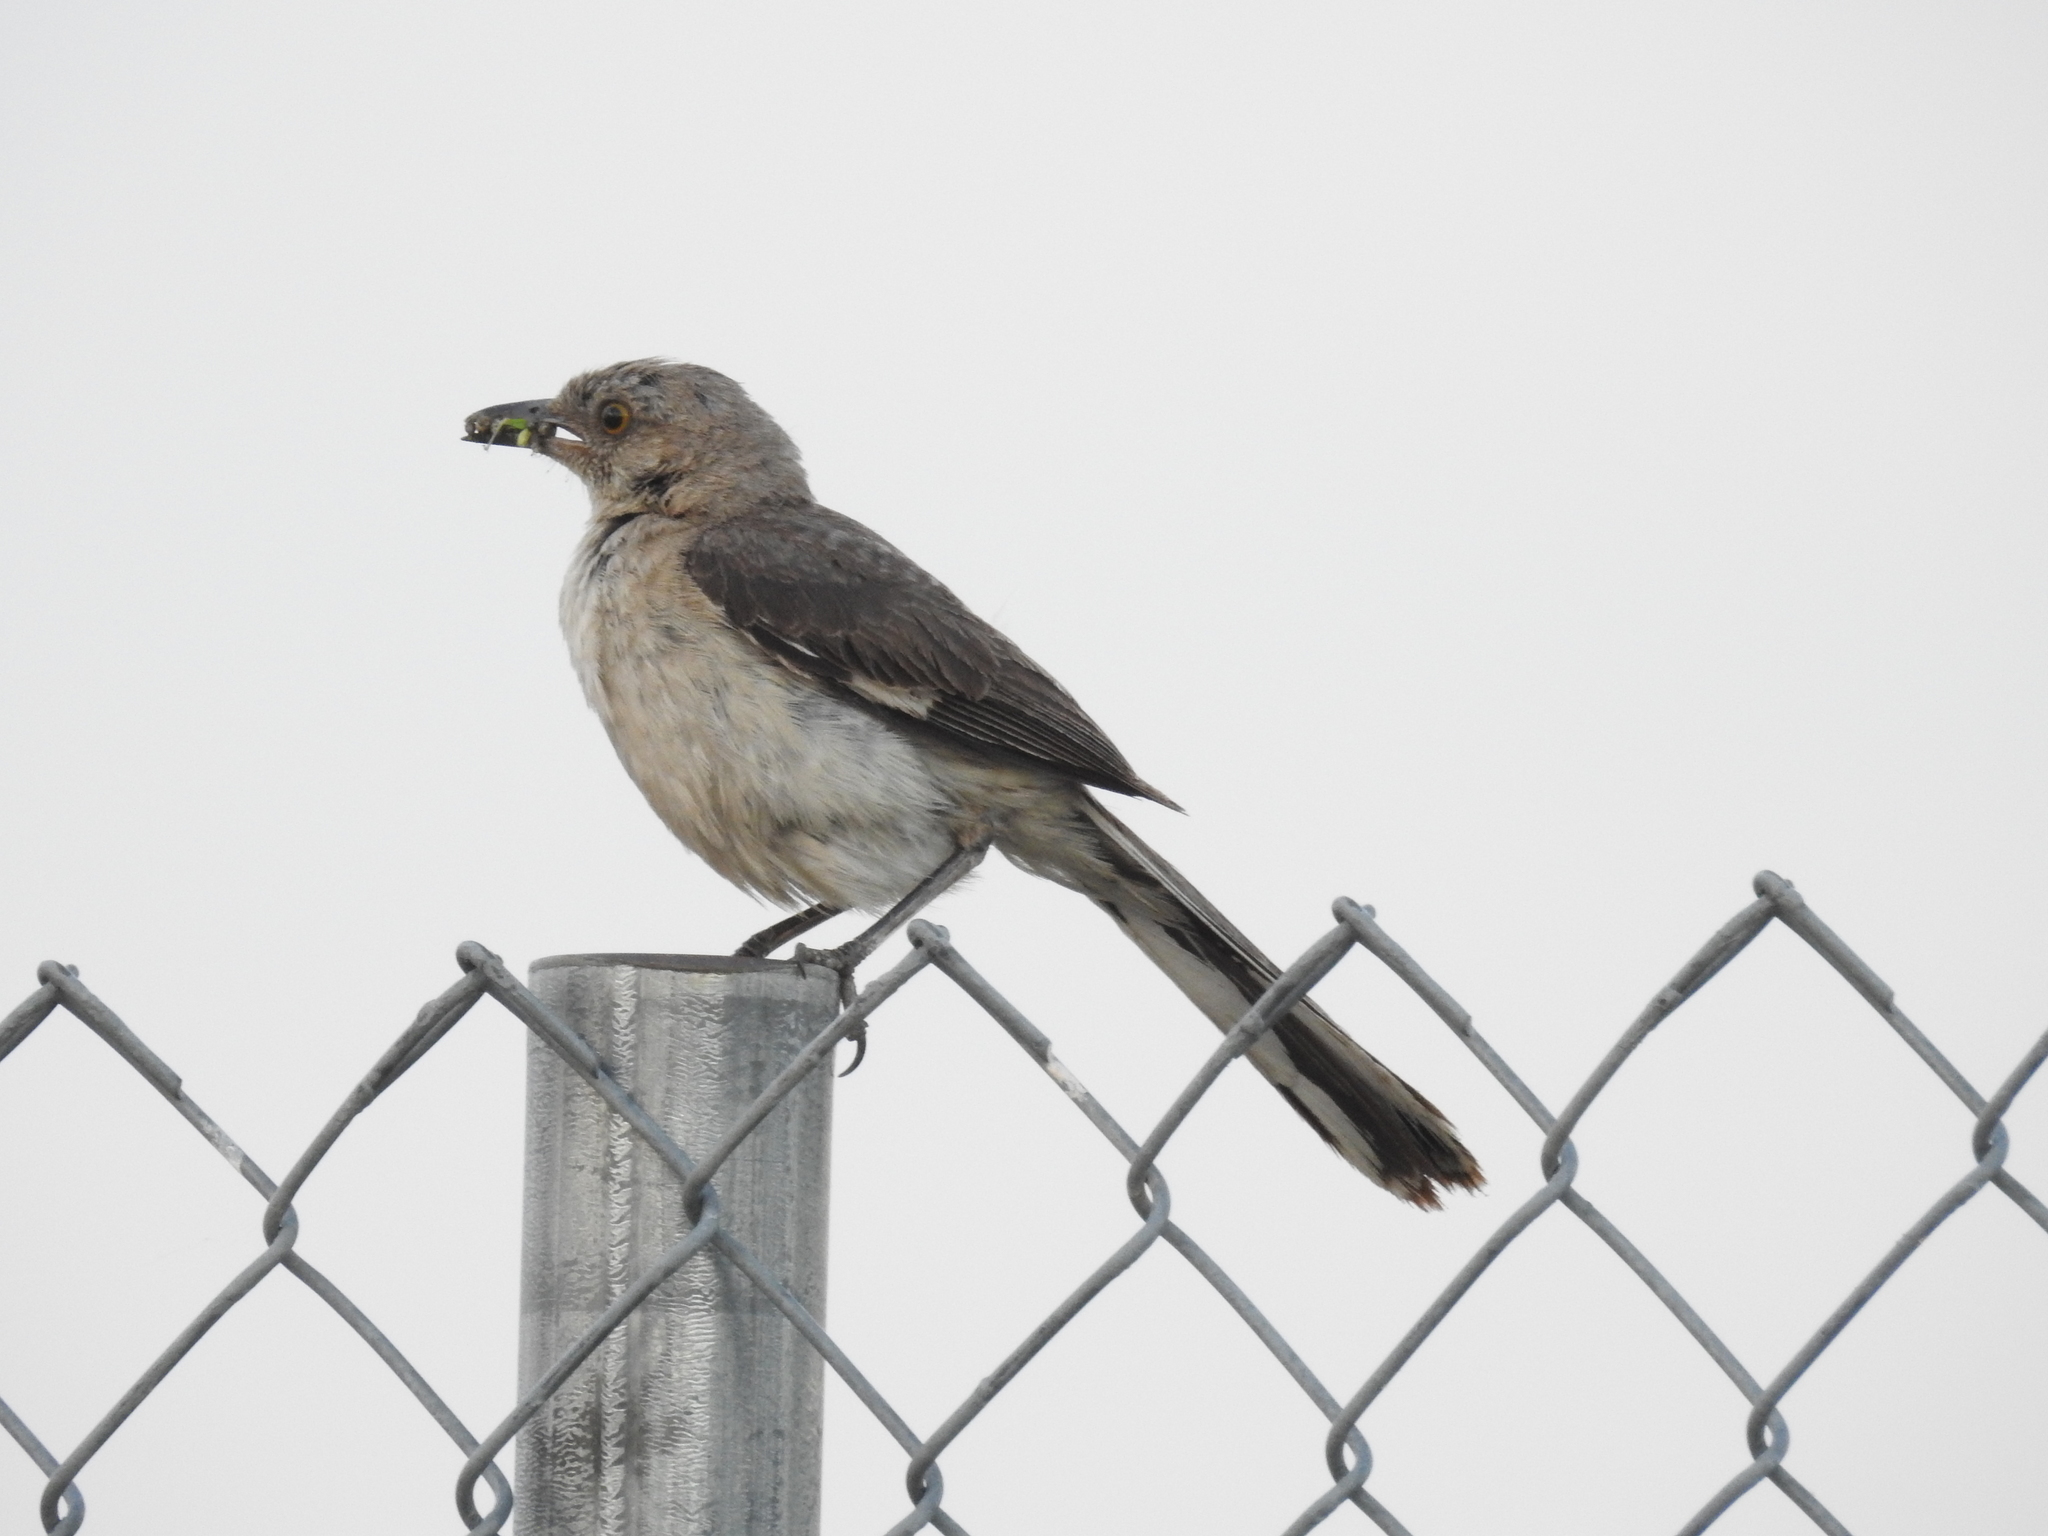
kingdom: Animalia
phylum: Chordata
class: Aves
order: Passeriformes
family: Mimidae
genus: Mimus
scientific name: Mimus polyglottos
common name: Northern mockingbird
